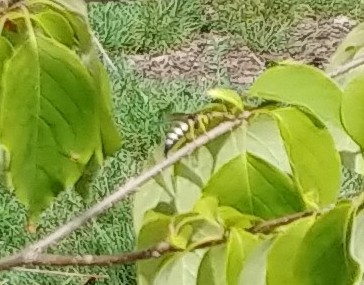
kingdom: Animalia
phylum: Arthropoda
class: Insecta
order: Hymenoptera
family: Crabronidae
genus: Bicyrtes
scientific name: Bicyrtes quadrifasciatus
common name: Four-banded stink bug hunter wasp
